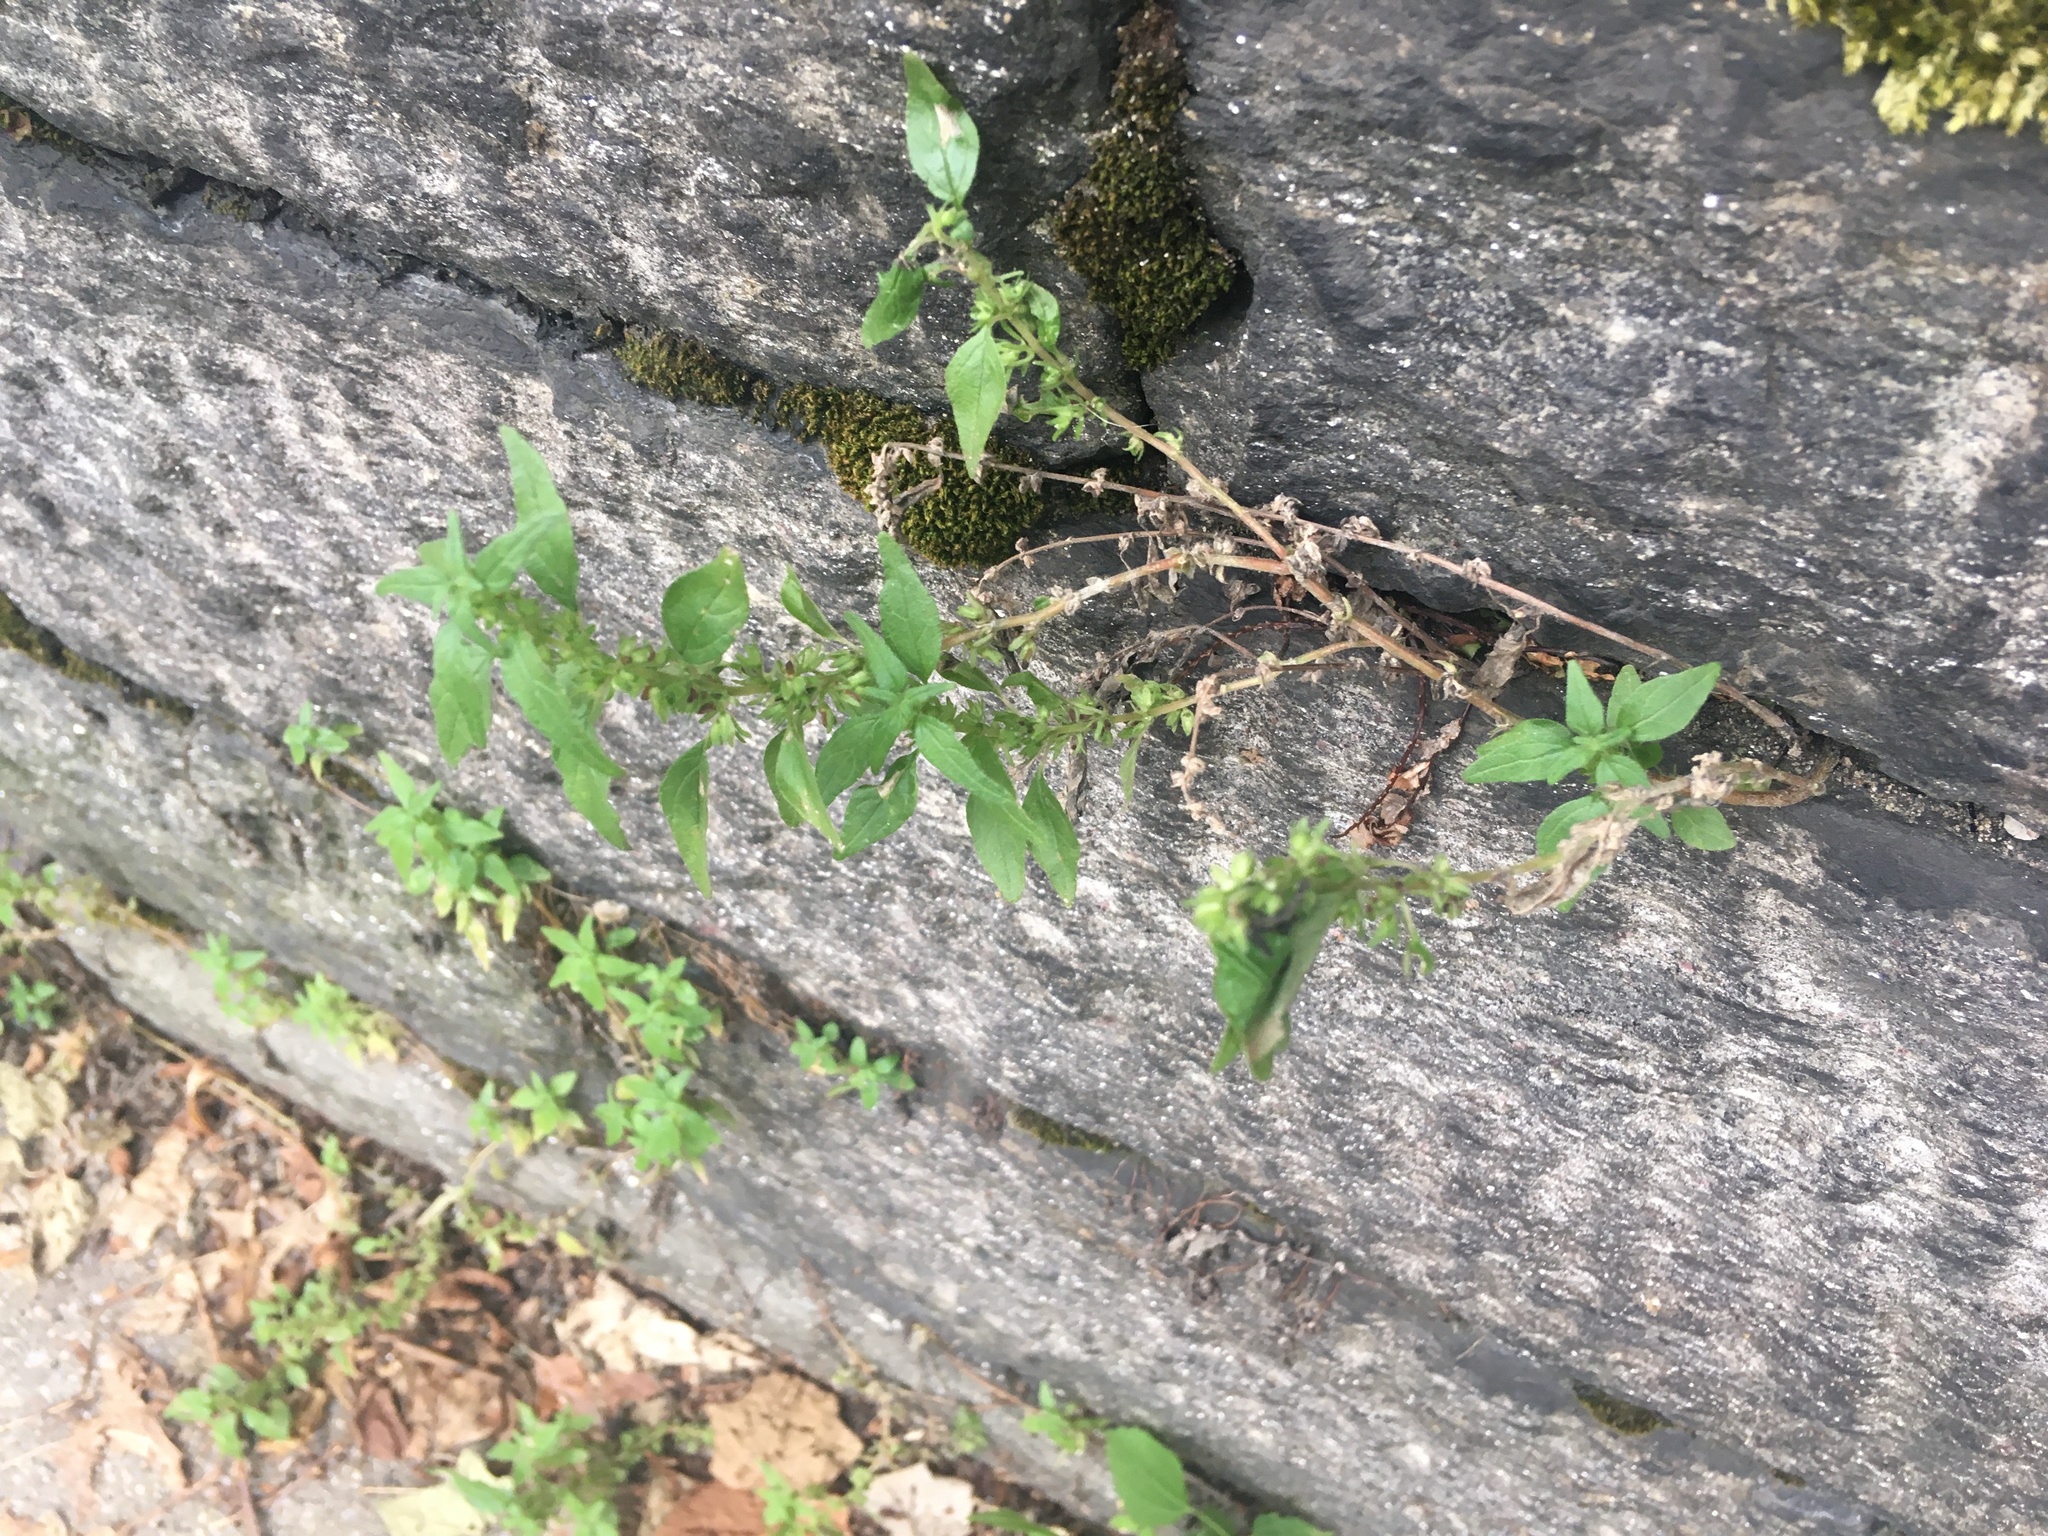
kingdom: Plantae
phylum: Tracheophyta
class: Magnoliopsida
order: Rosales
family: Urticaceae
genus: Parietaria
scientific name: Parietaria pensylvanica
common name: Pennsylvania pellitory
